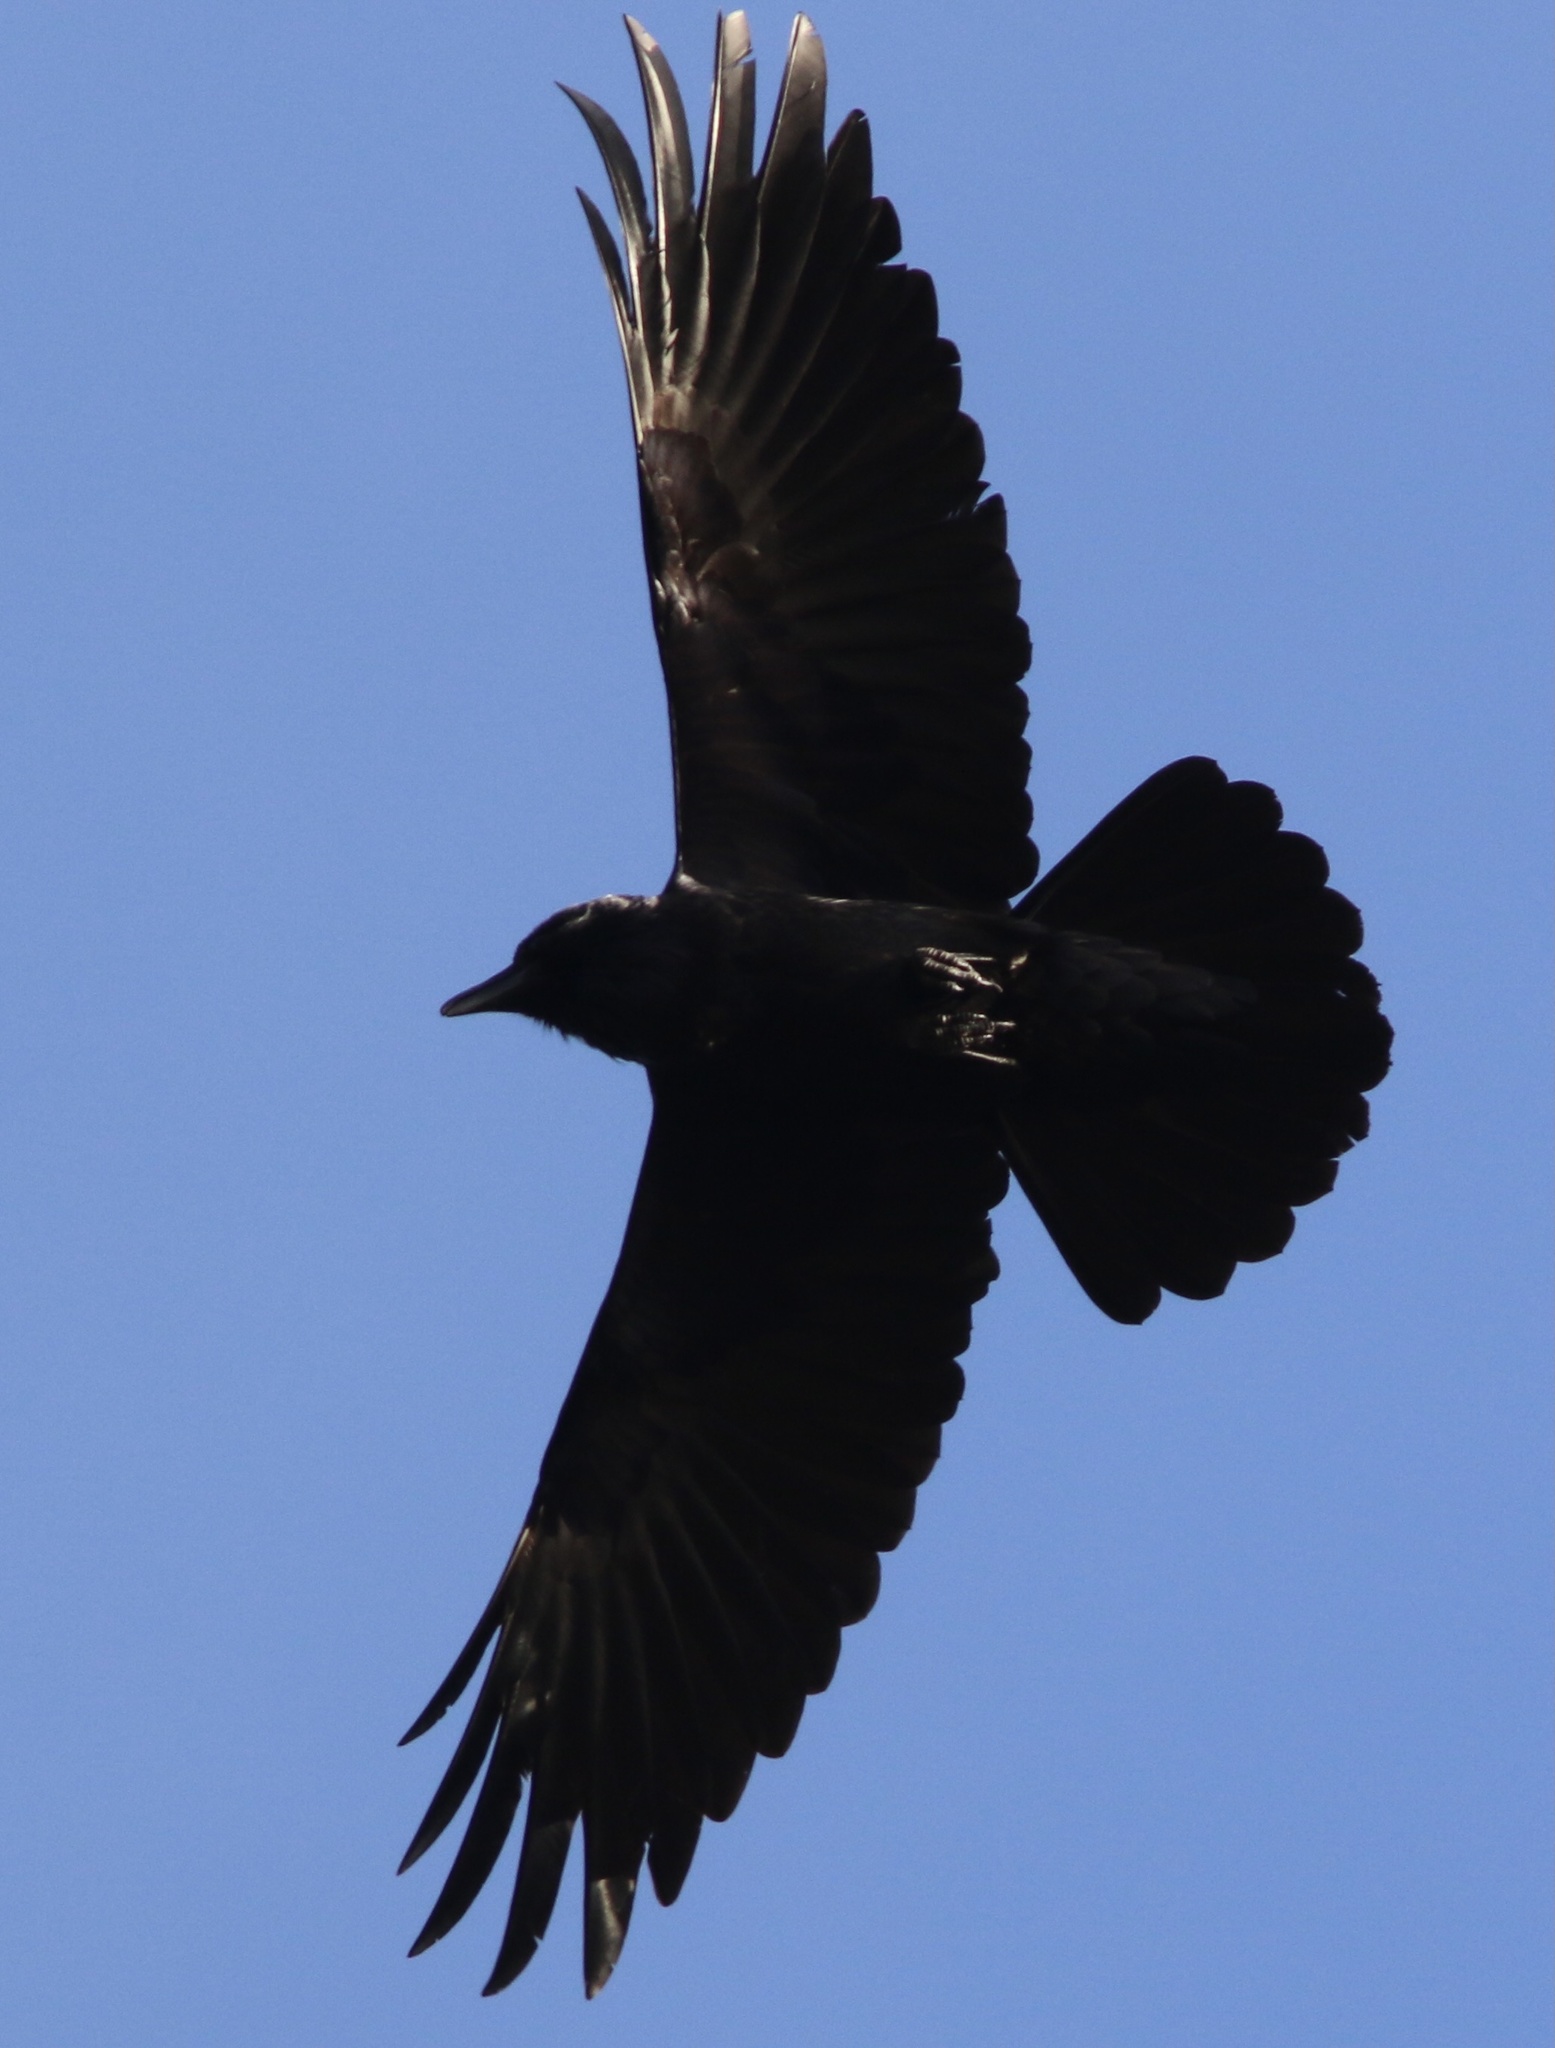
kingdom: Animalia
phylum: Chordata
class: Aves
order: Passeriformes
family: Corvidae
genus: Corvus
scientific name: Corvus brachyrhynchos
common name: American crow
